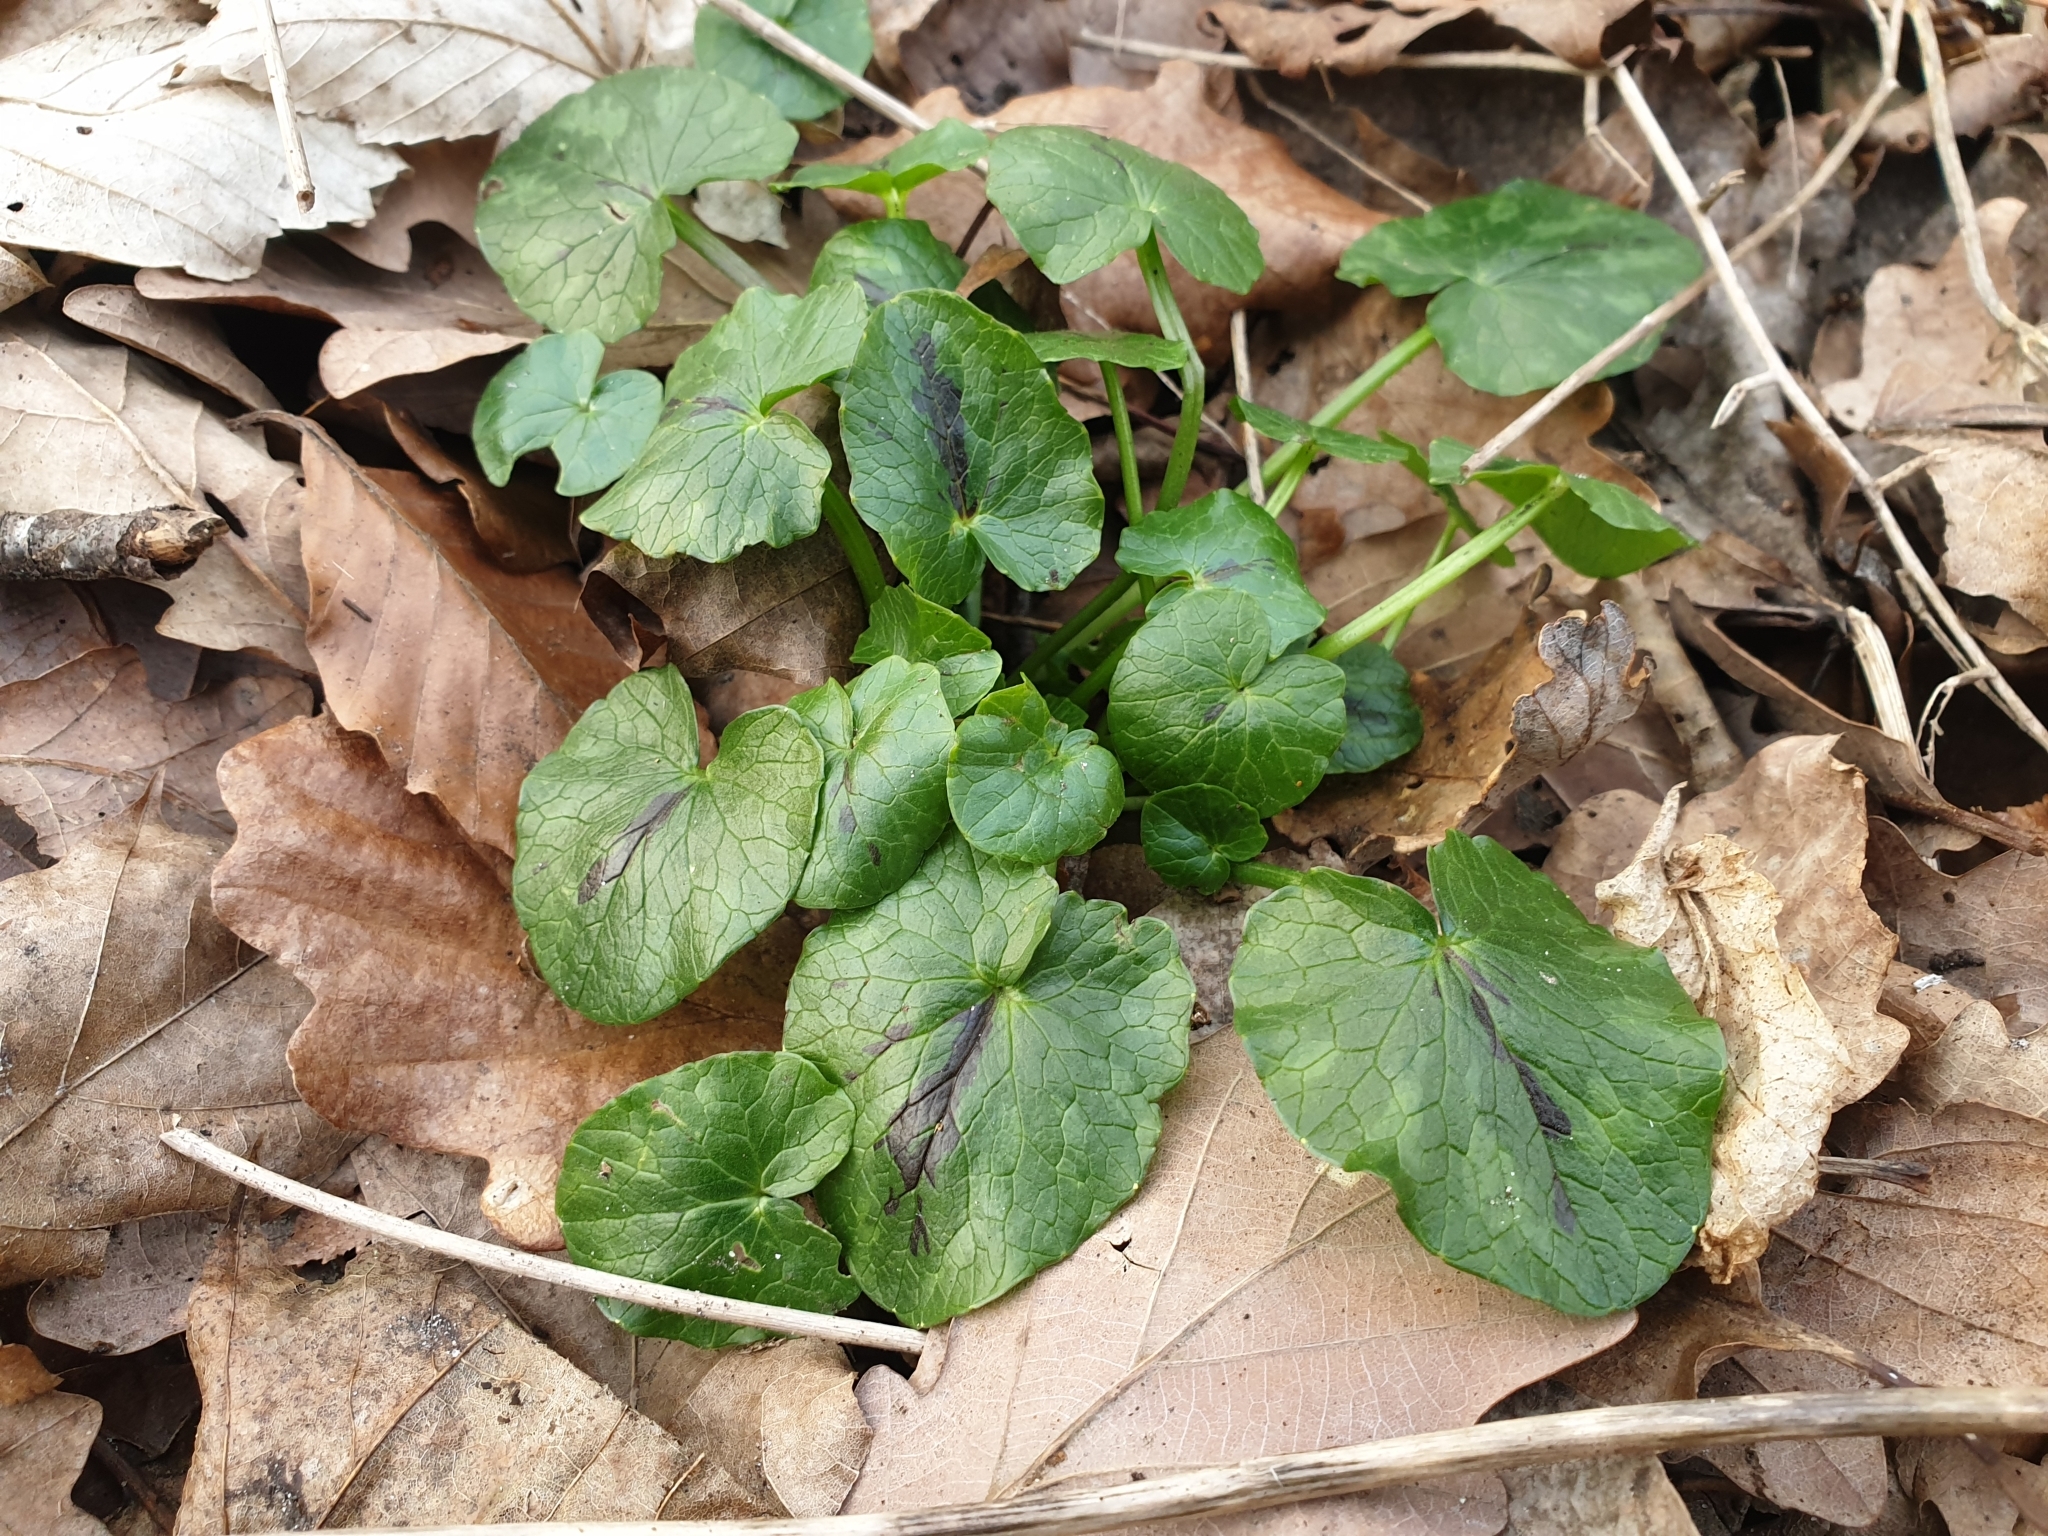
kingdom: Plantae
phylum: Tracheophyta
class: Magnoliopsida
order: Ranunculales
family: Ranunculaceae
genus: Ficaria
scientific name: Ficaria verna
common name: Lesser celandine
